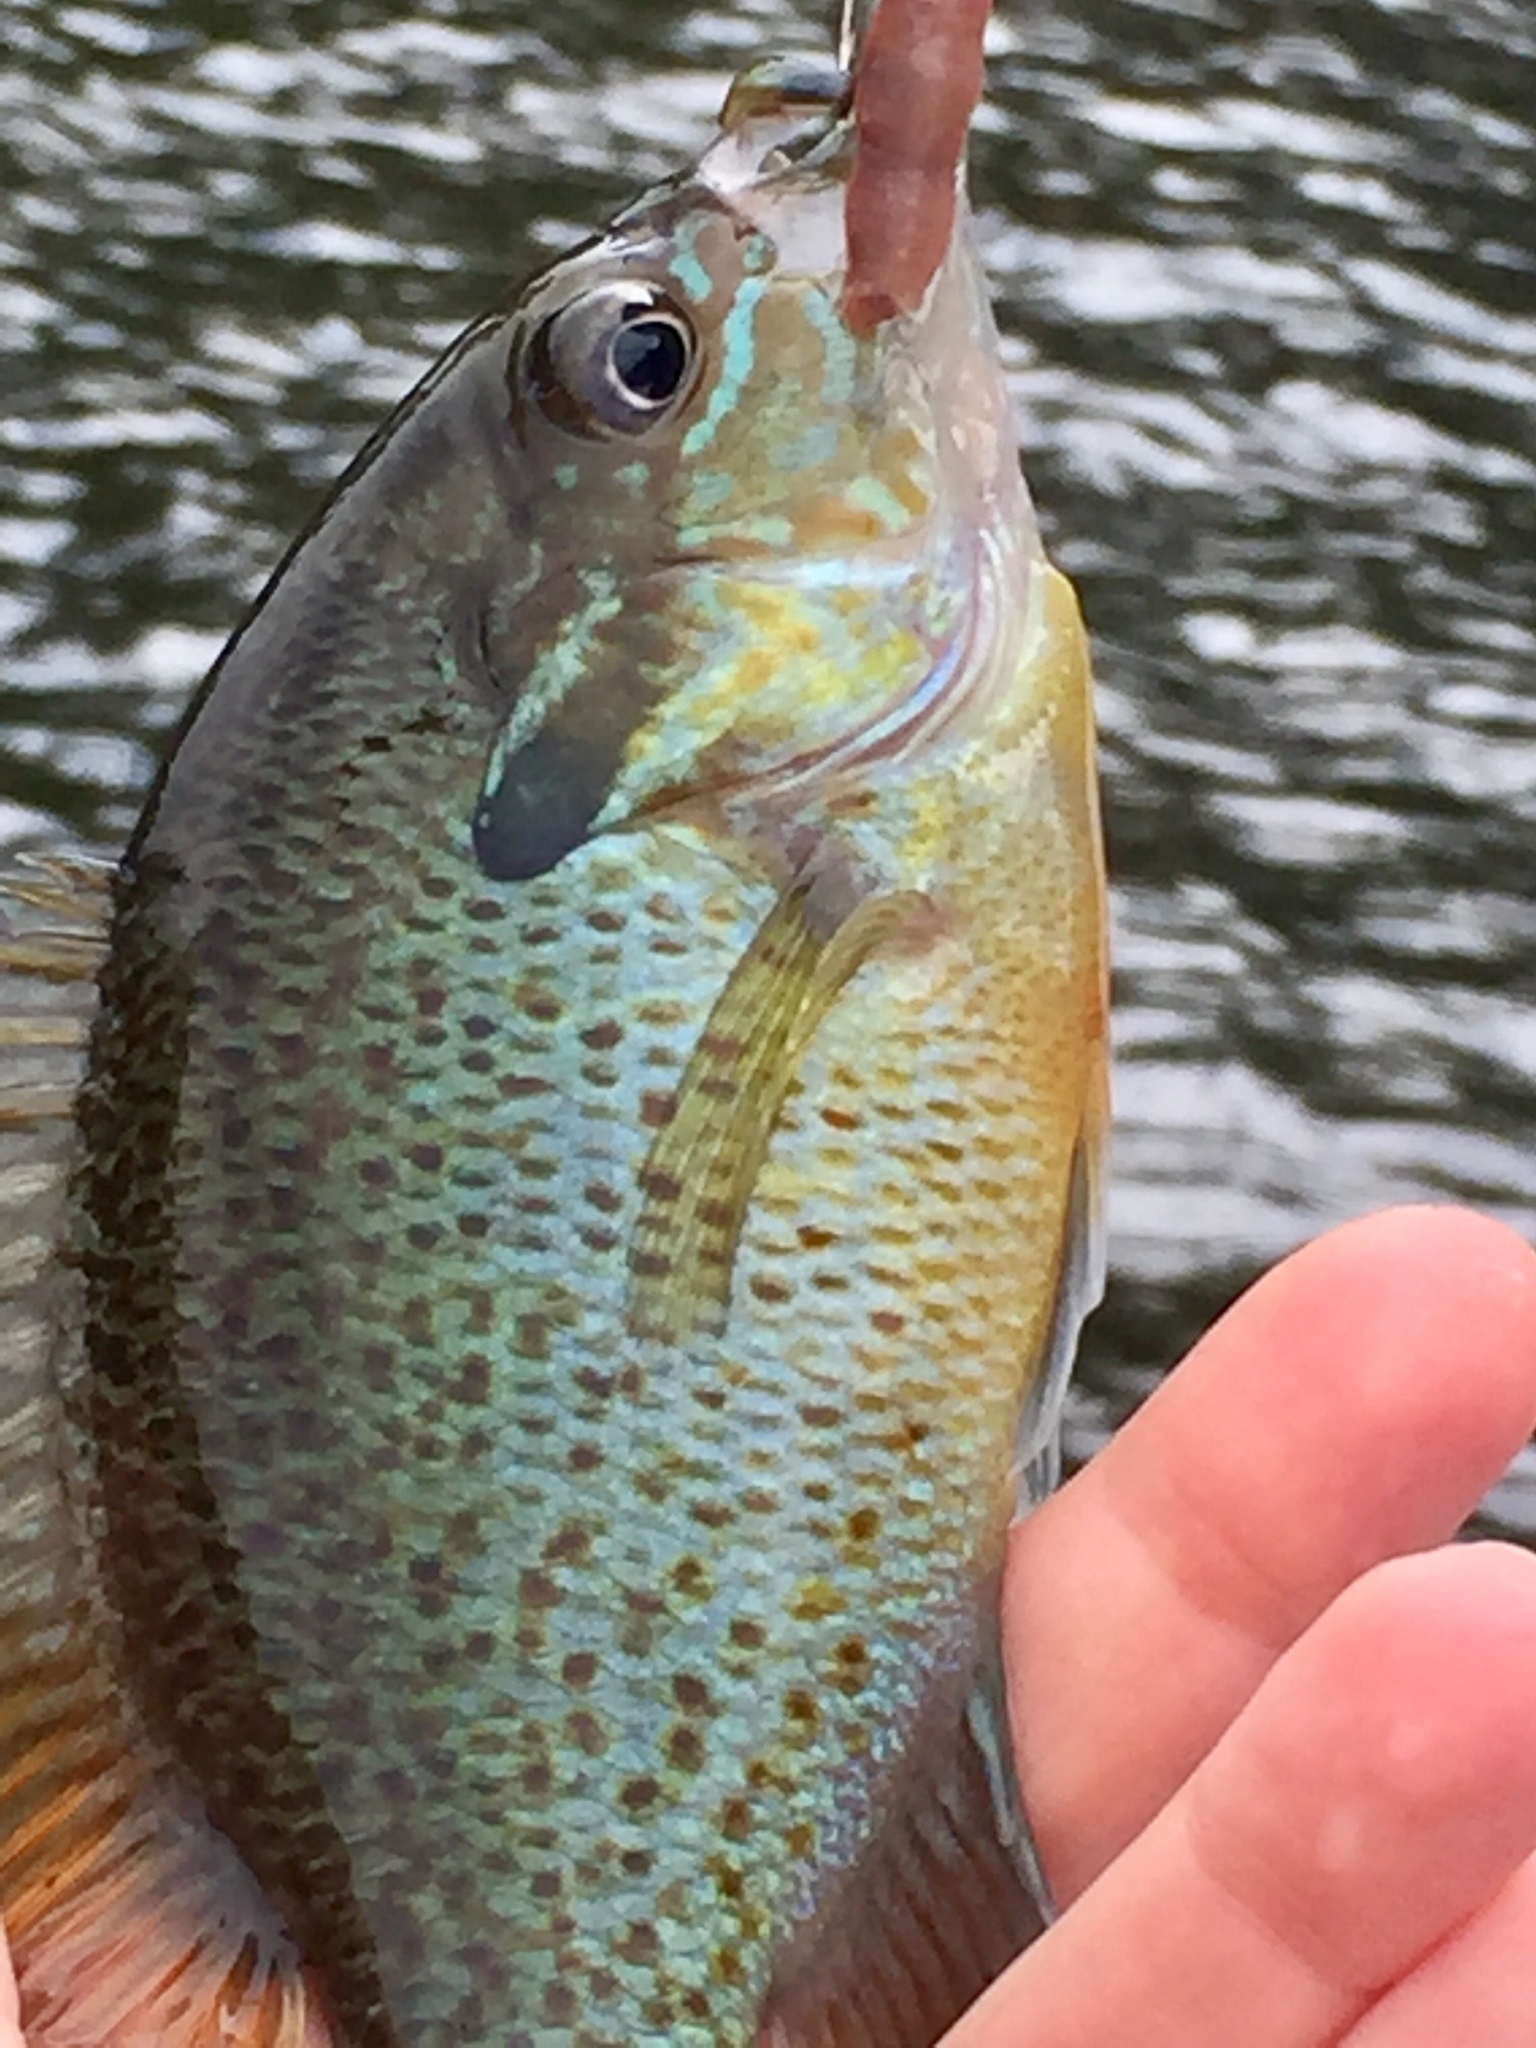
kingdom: Animalia
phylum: Chordata
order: Perciformes
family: Centrarchidae
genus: Lepomis
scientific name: Lepomis auritus
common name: Redbreast sunfish
